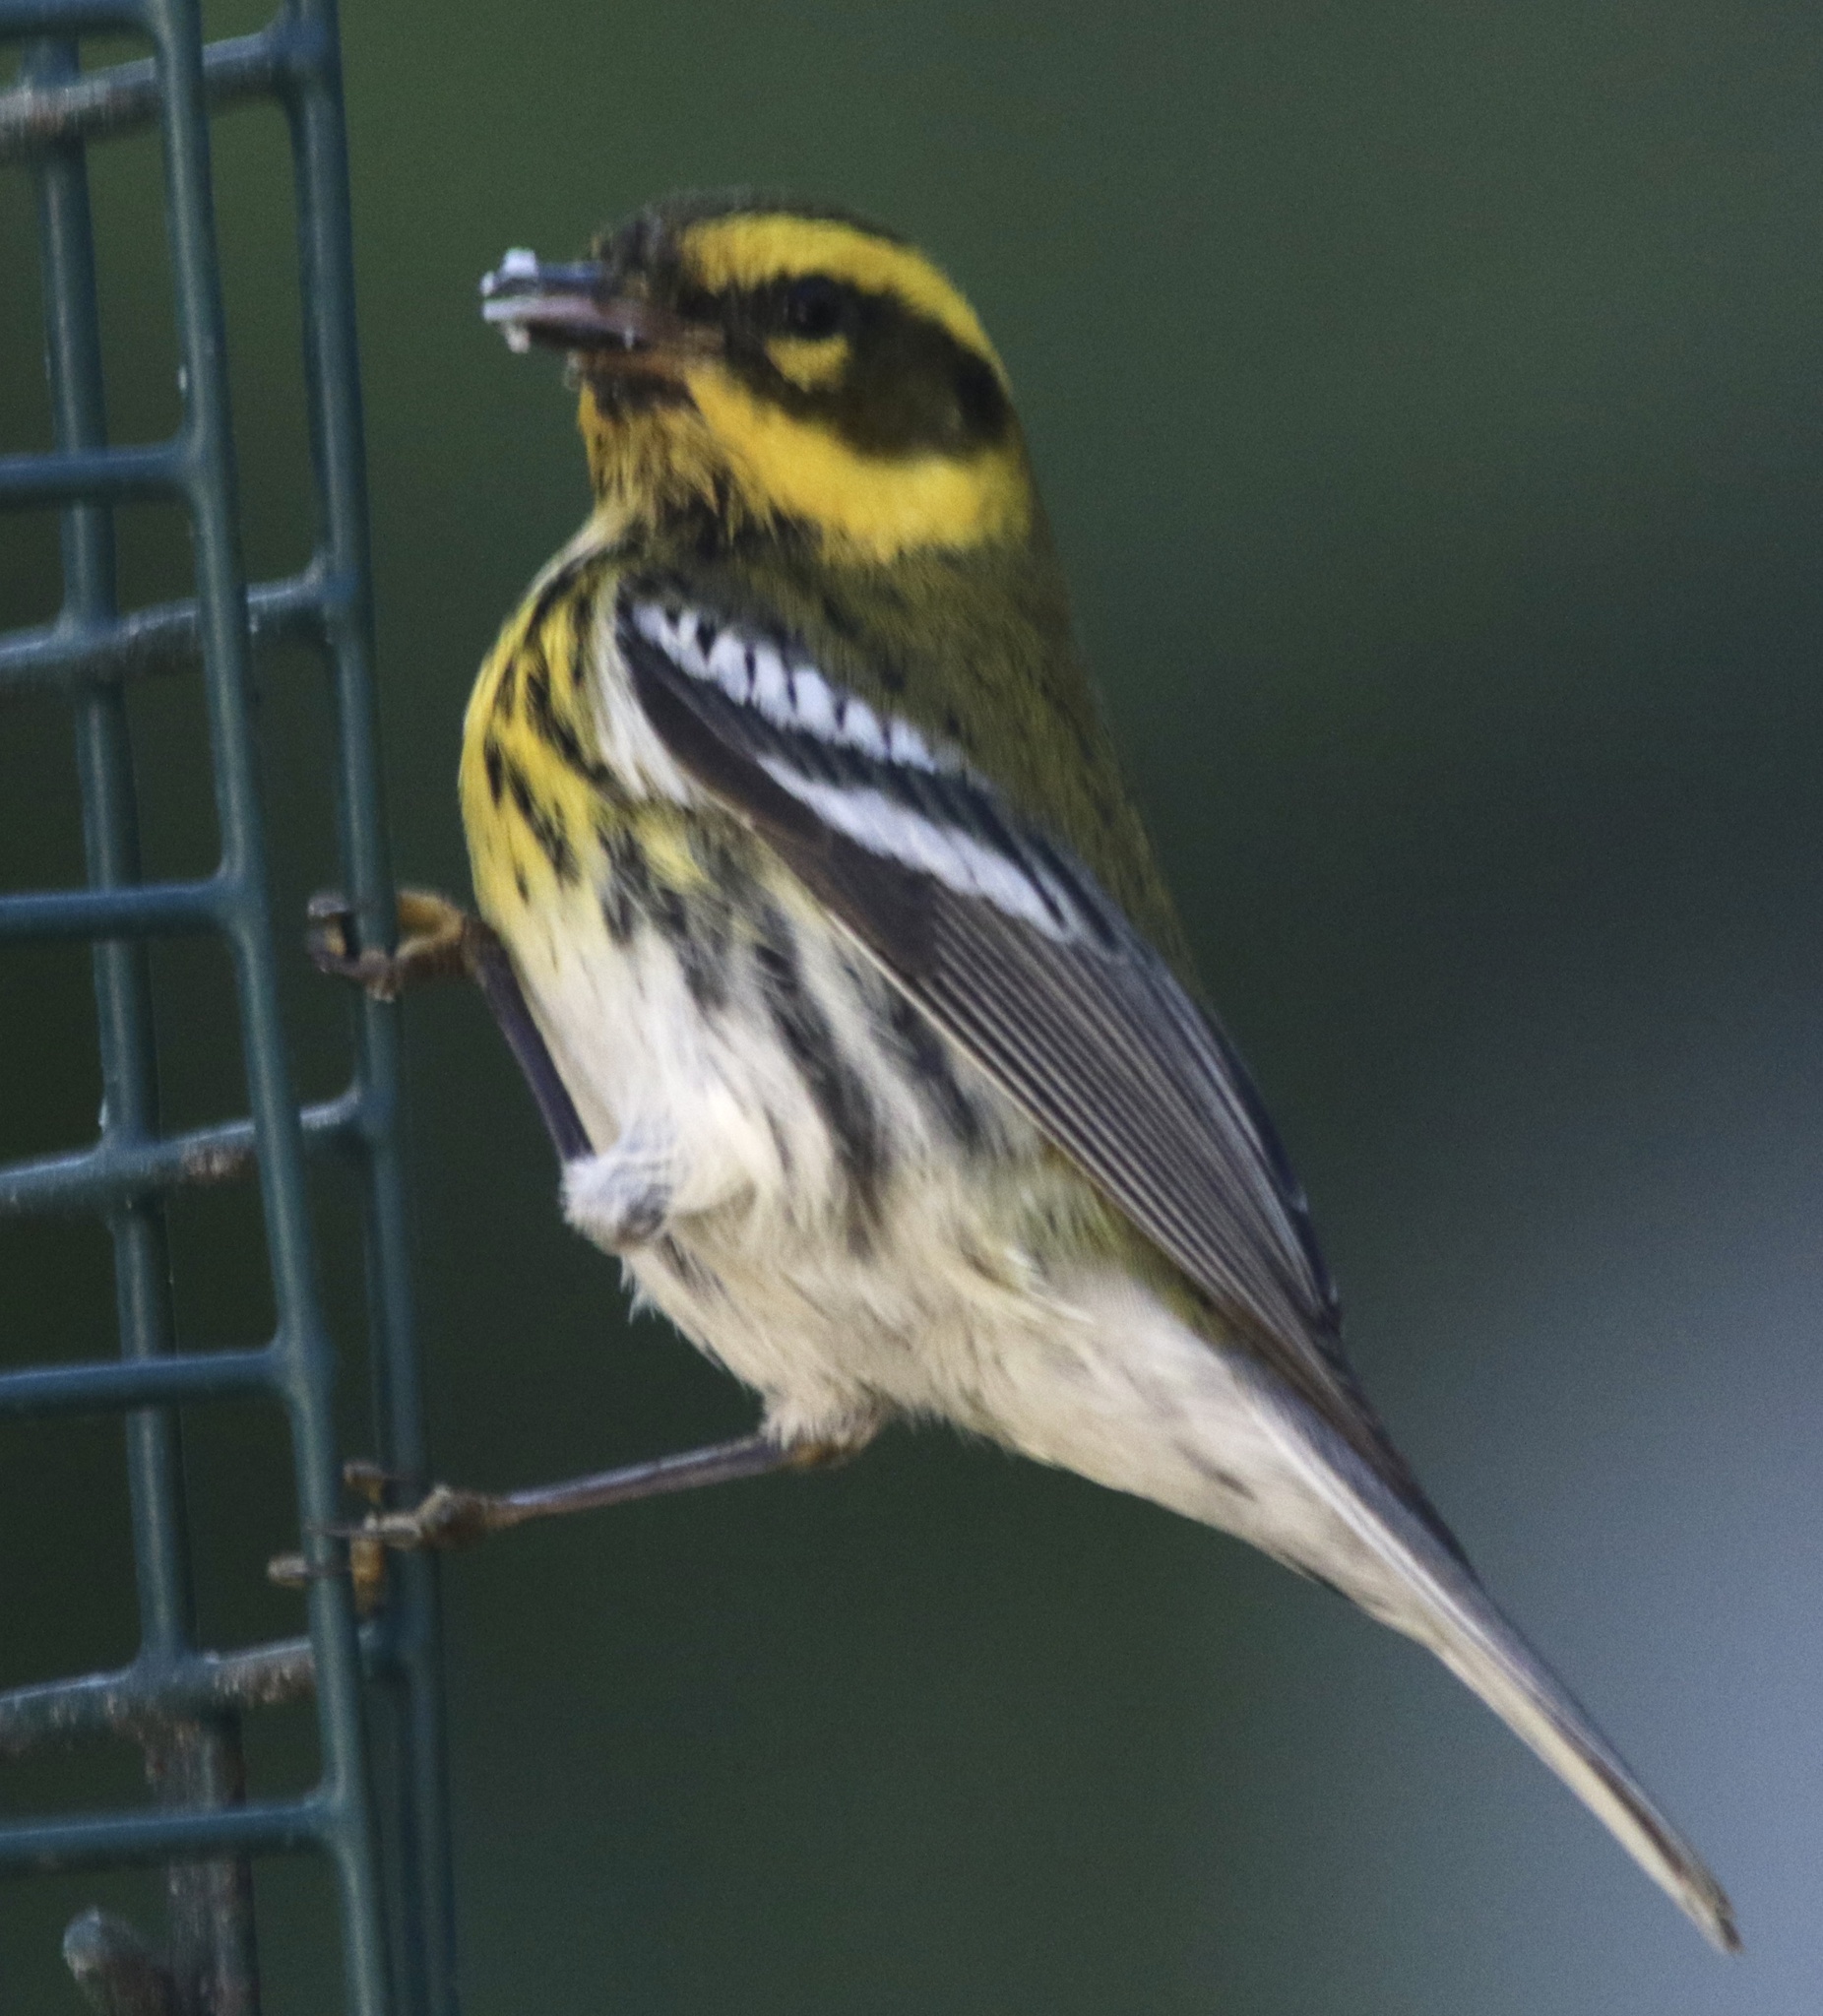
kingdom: Animalia
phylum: Chordata
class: Aves
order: Passeriformes
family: Parulidae
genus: Setophaga
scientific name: Setophaga townsendi
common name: Townsend's warbler
